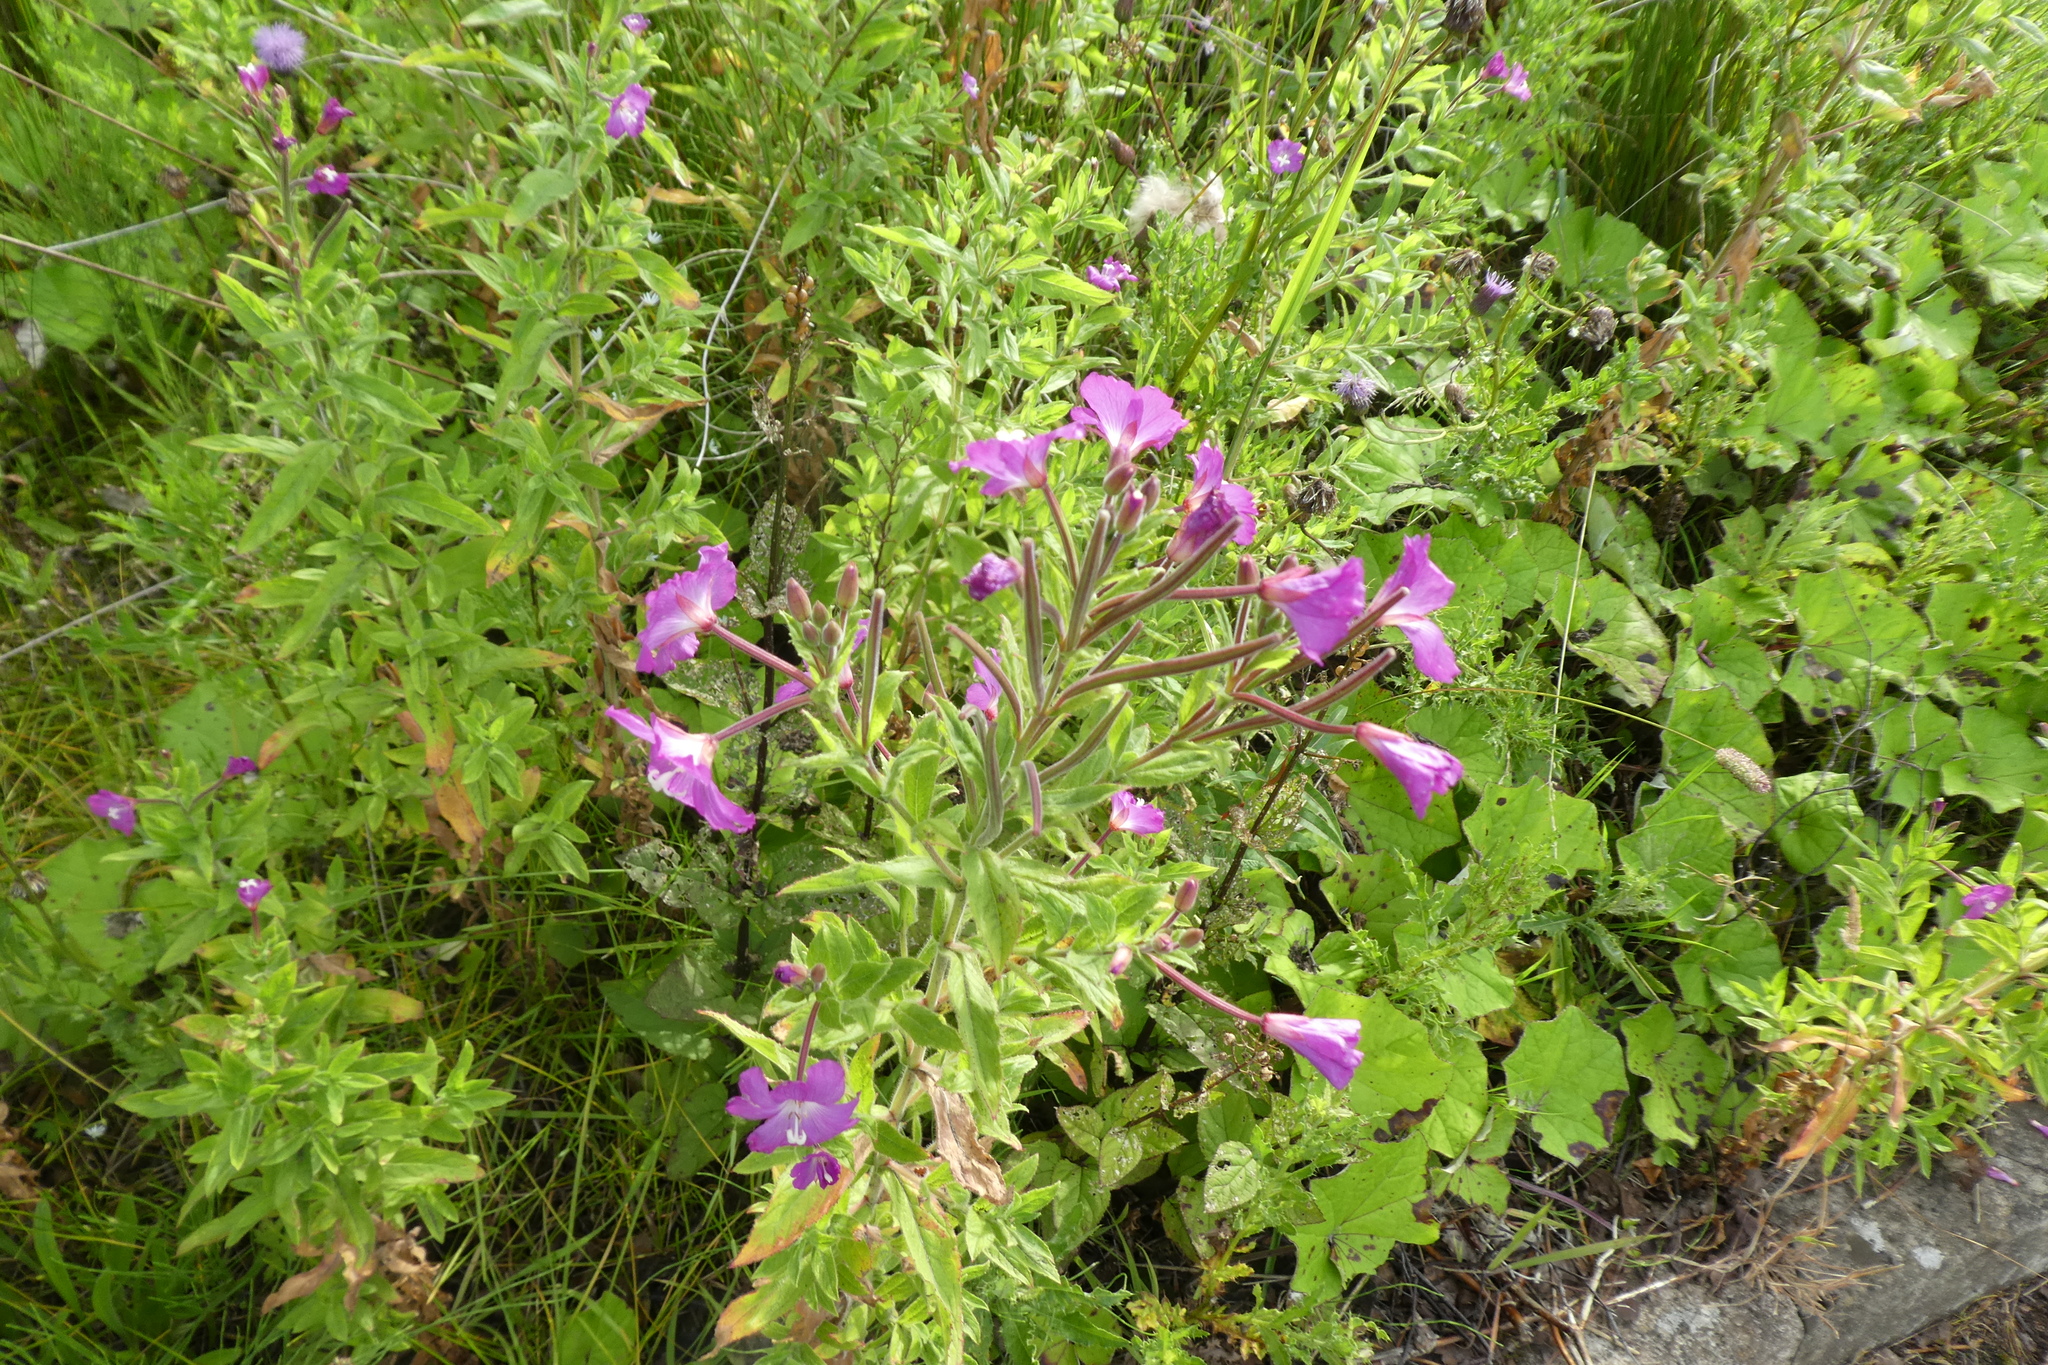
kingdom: Plantae
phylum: Tracheophyta
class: Magnoliopsida
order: Myrtales
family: Onagraceae
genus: Epilobium
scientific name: Epilobium hirsutum
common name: Great willowherb
